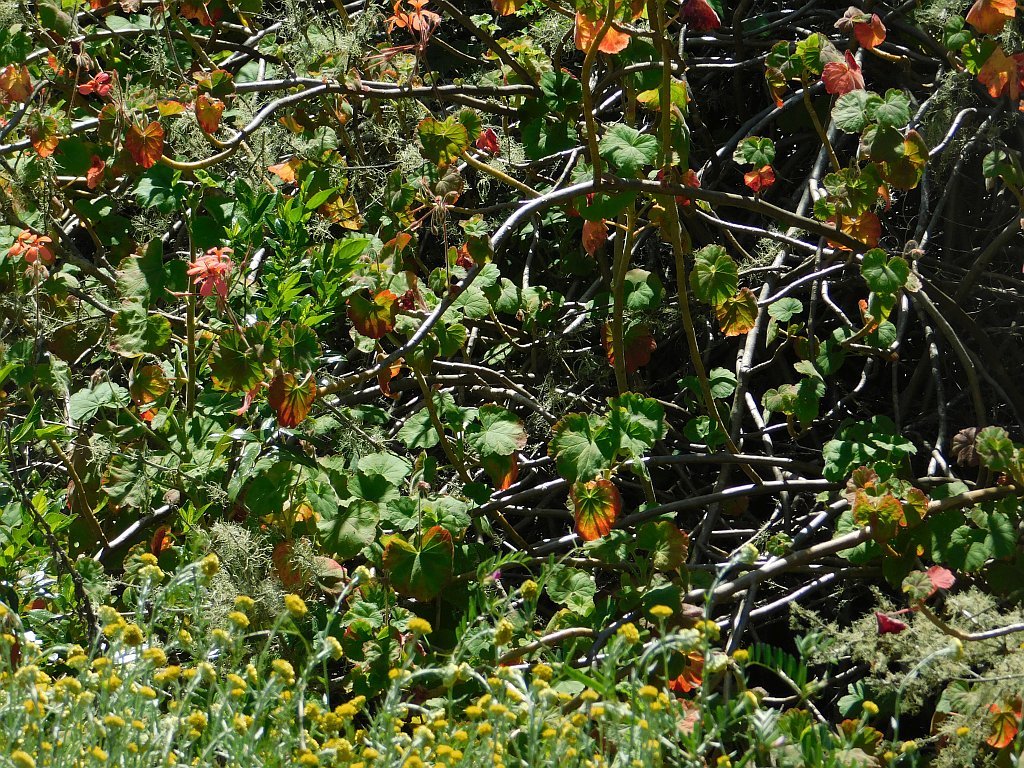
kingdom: Plantae
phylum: Tracheophyta
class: Magnoliopsida
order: Geraniales
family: Geraniaceae
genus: Pelargonium
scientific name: Pelargonium inquinans
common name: Scarlet geranium
